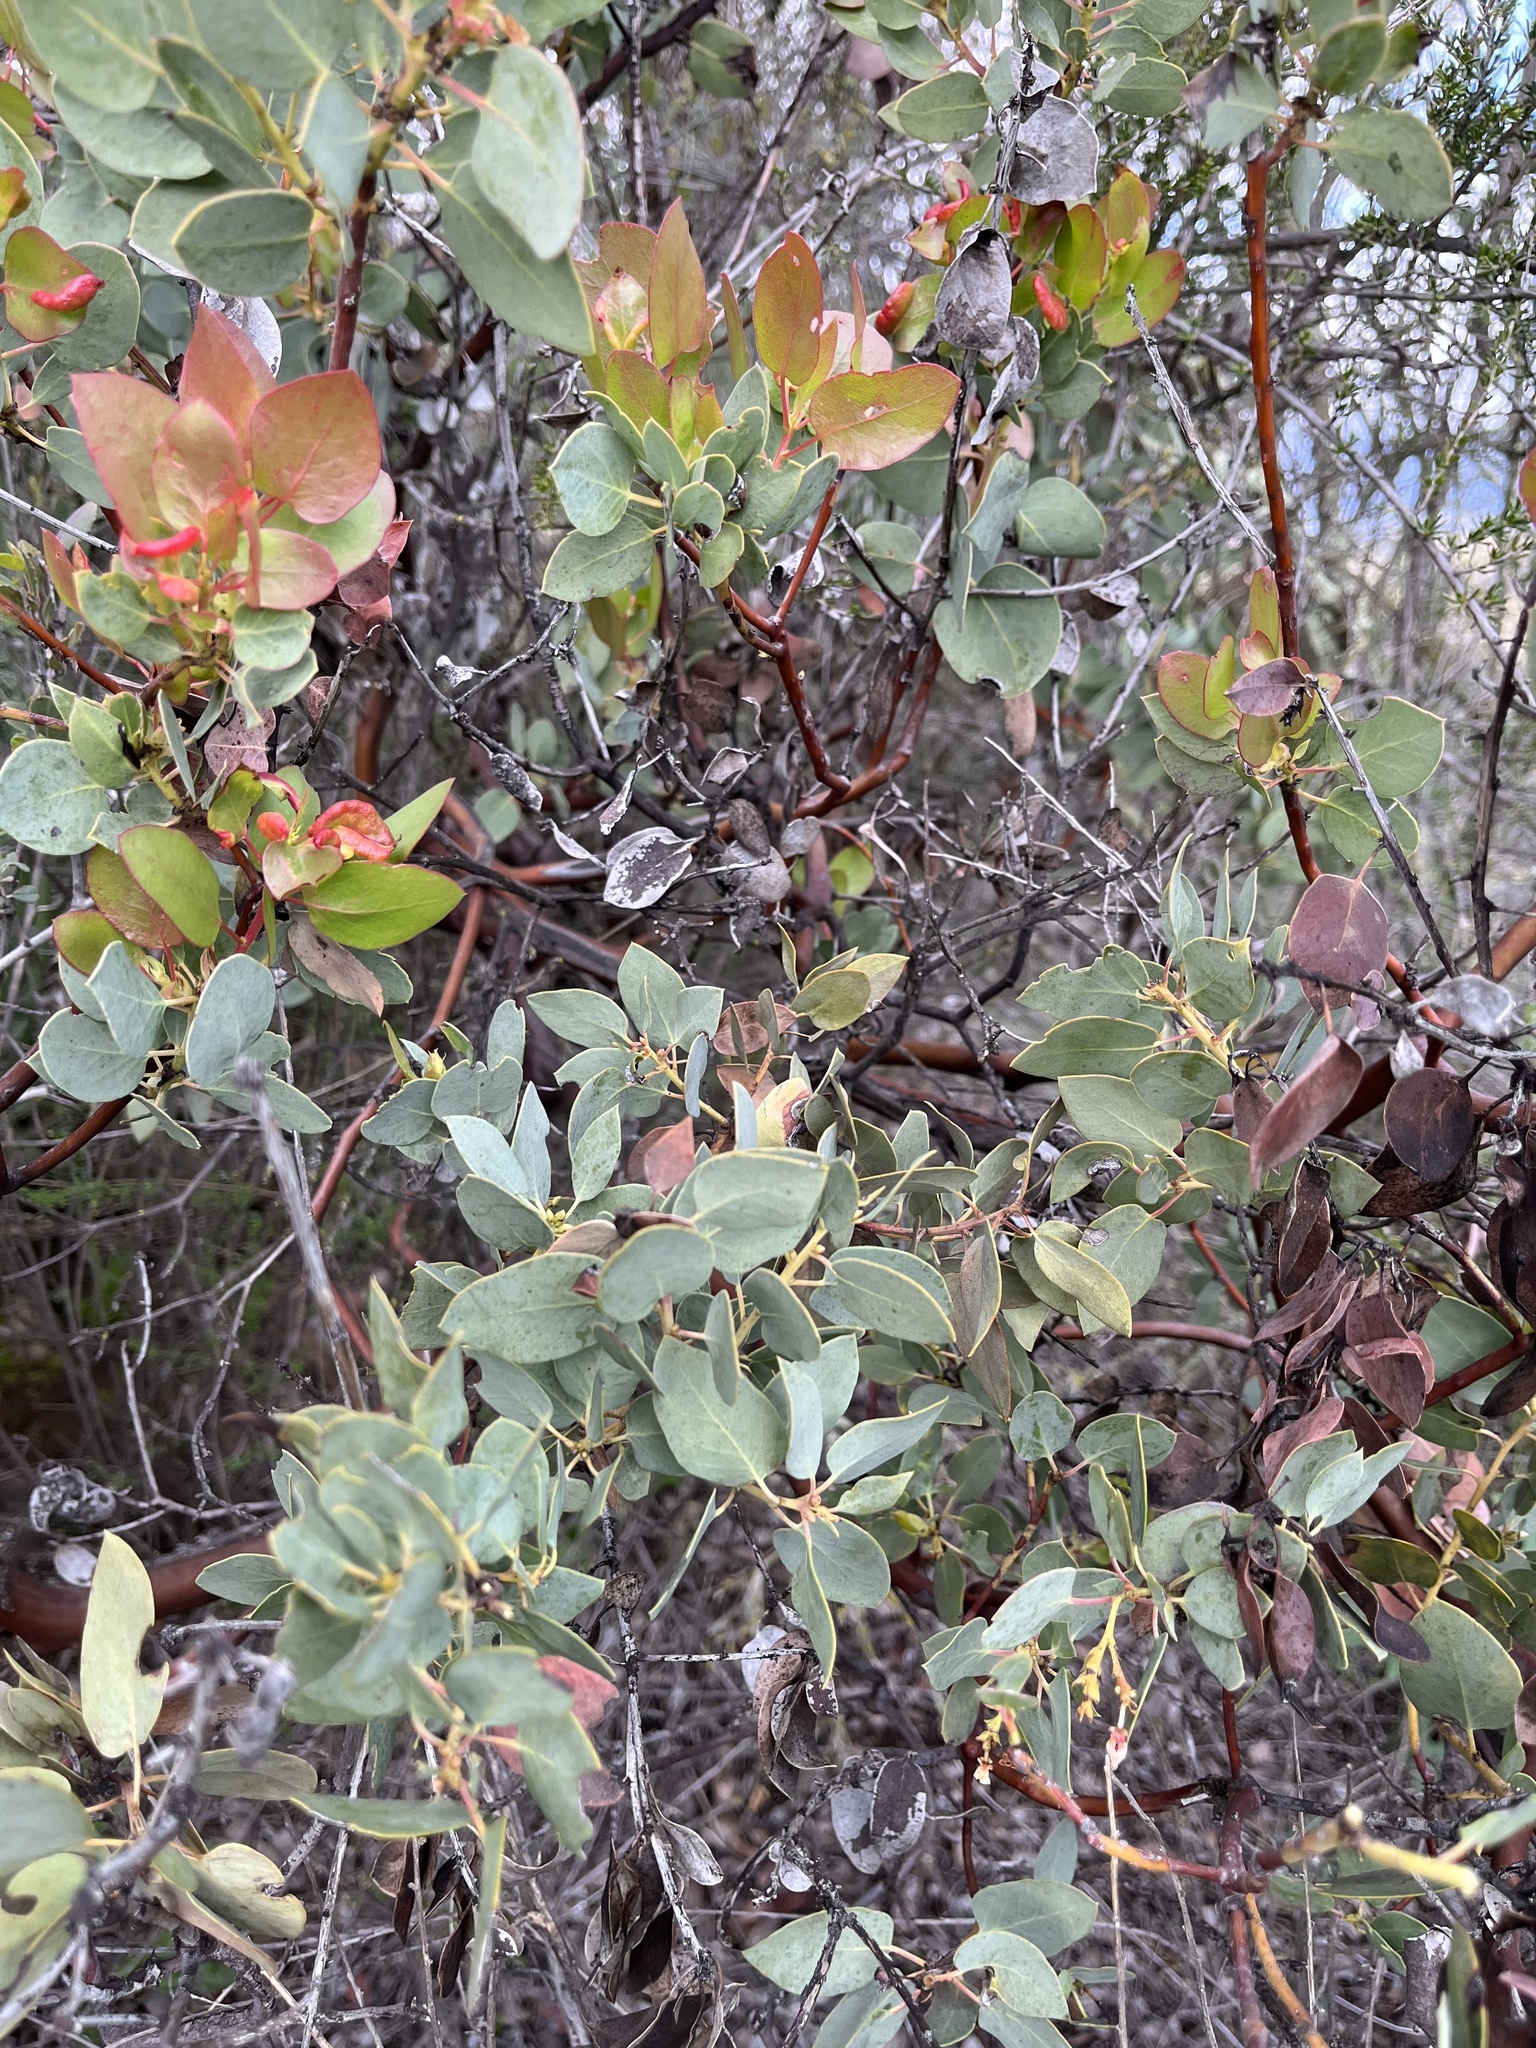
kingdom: Plantae
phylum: Tracheophyta
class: Magnoliopsida
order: Ericales
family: Ericaceae
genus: Arctostaphylos
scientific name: Arctostaphylos glauca
